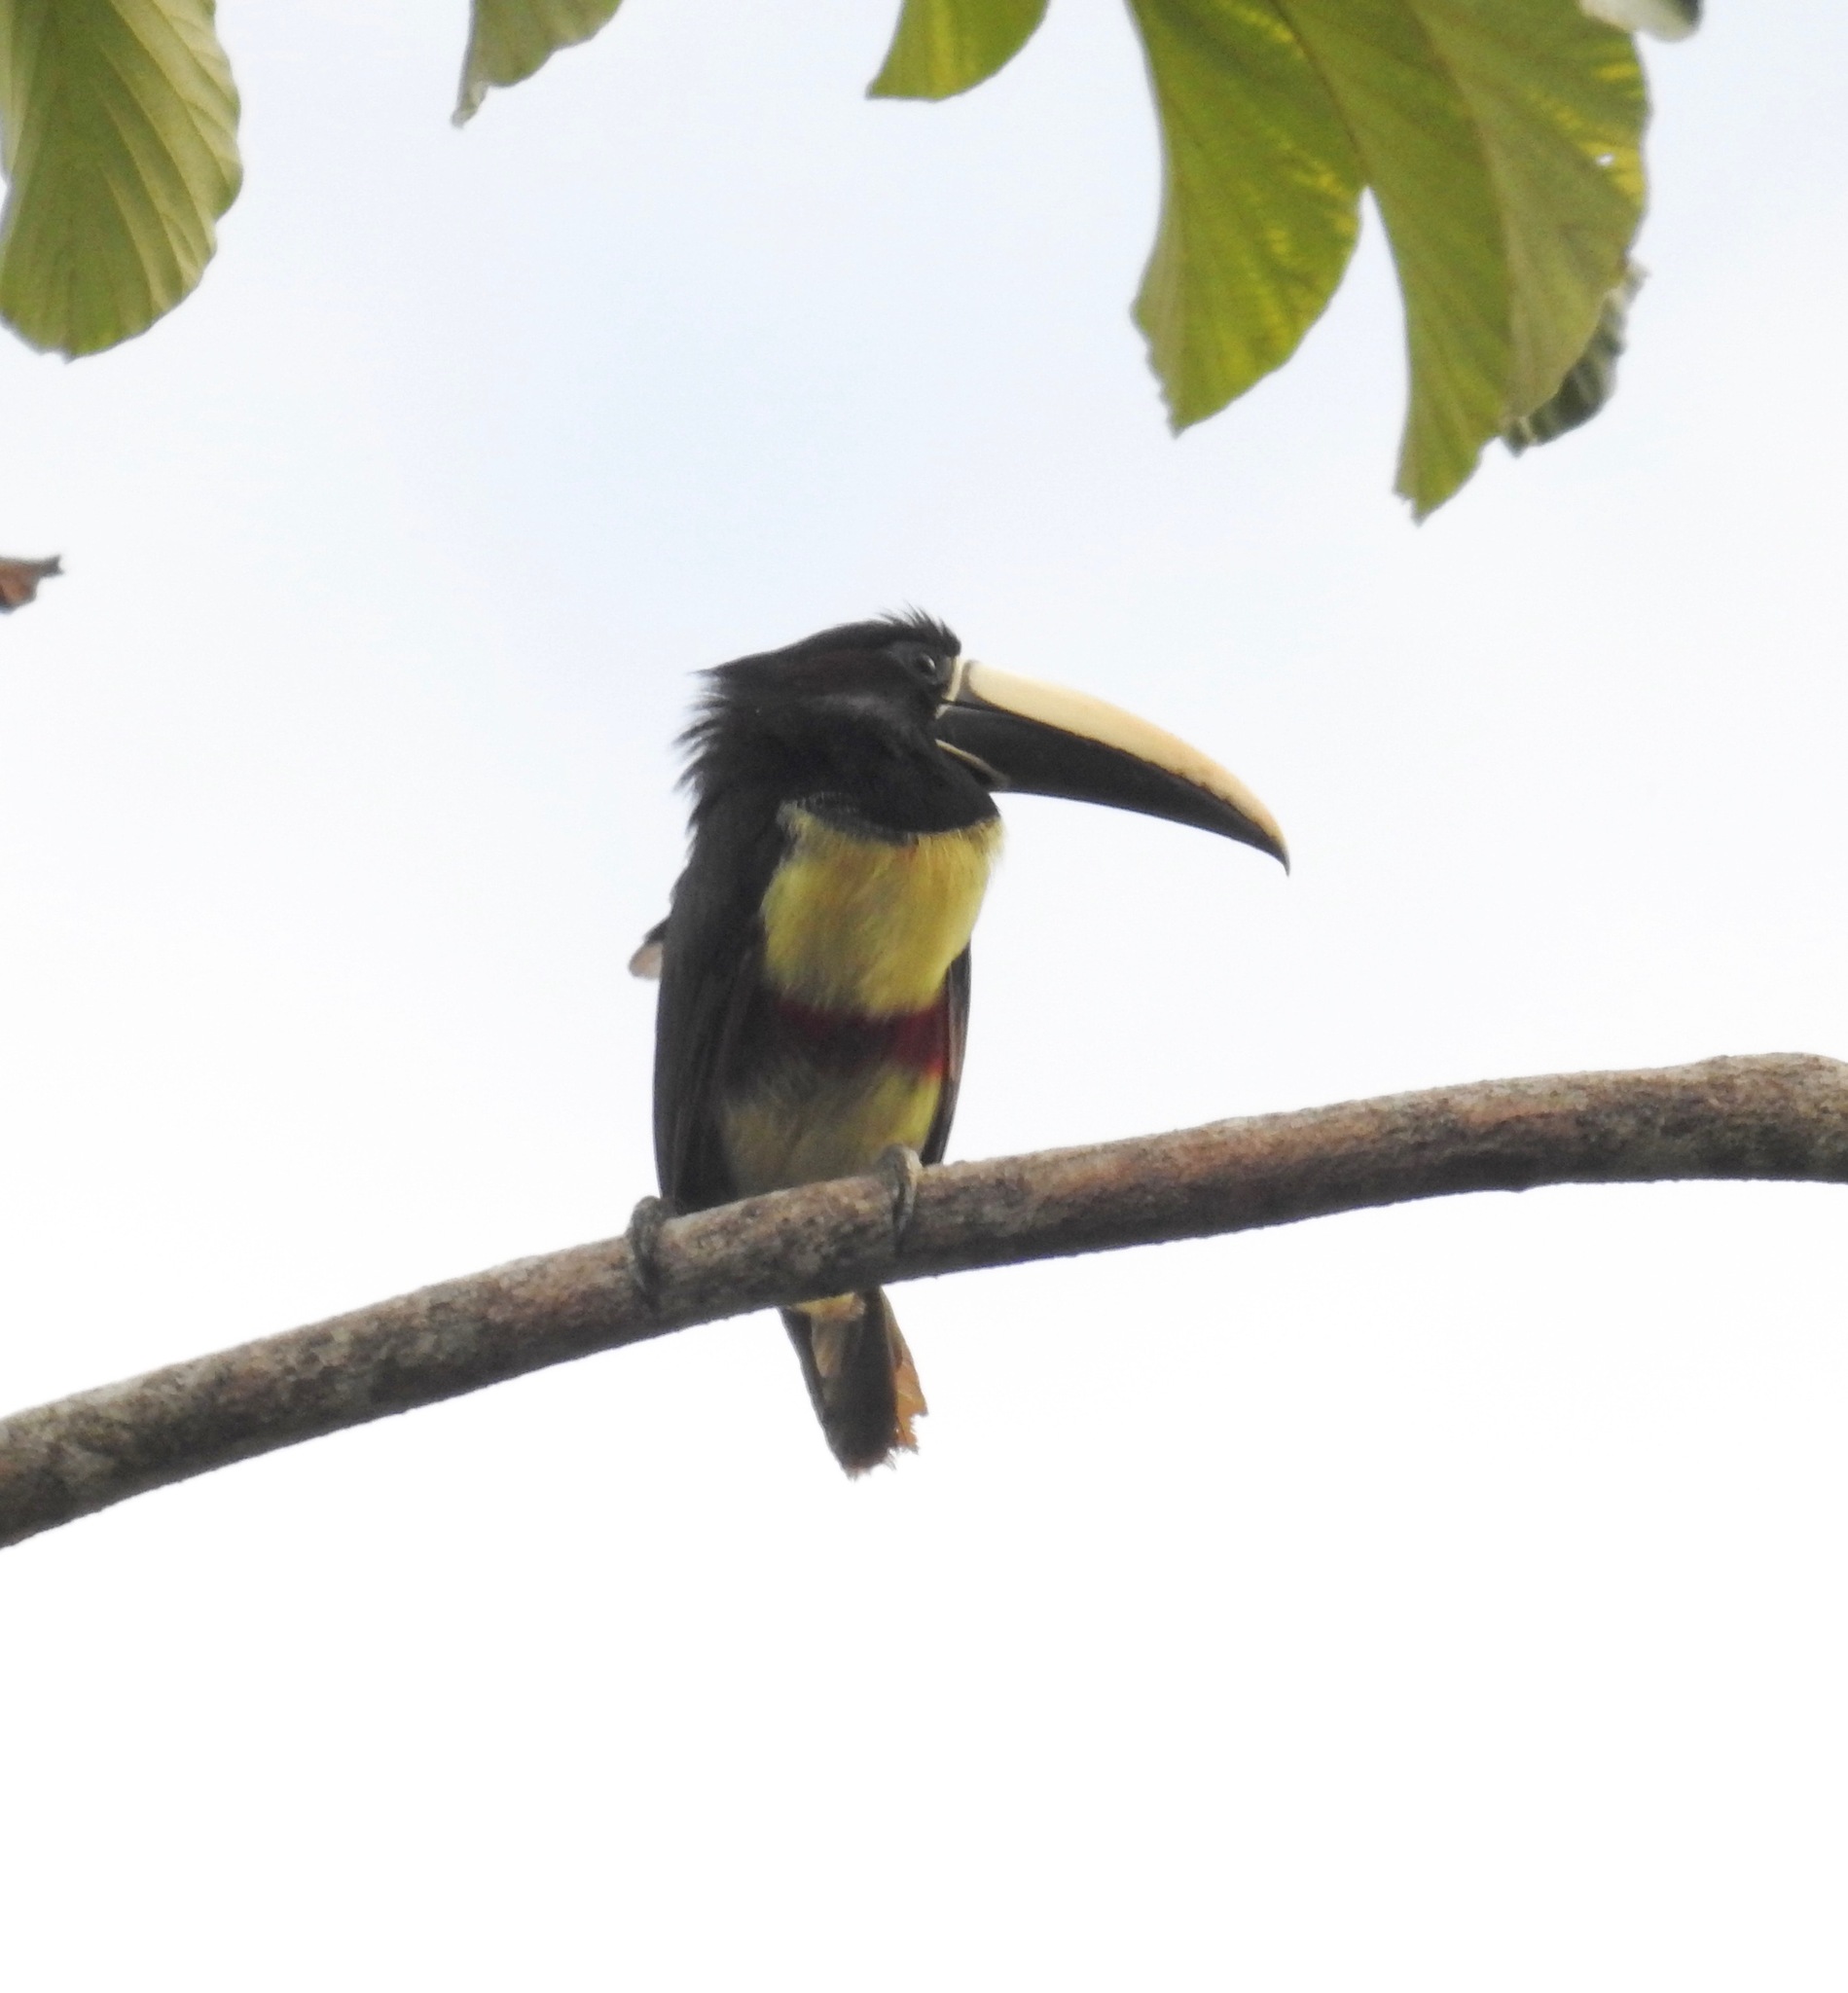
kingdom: Animalia
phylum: Chordata
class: Aves
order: Piciformes
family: Ramphastidae
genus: Pteroglossus
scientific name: Pteroglossus aracari
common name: Black-necked aracari
